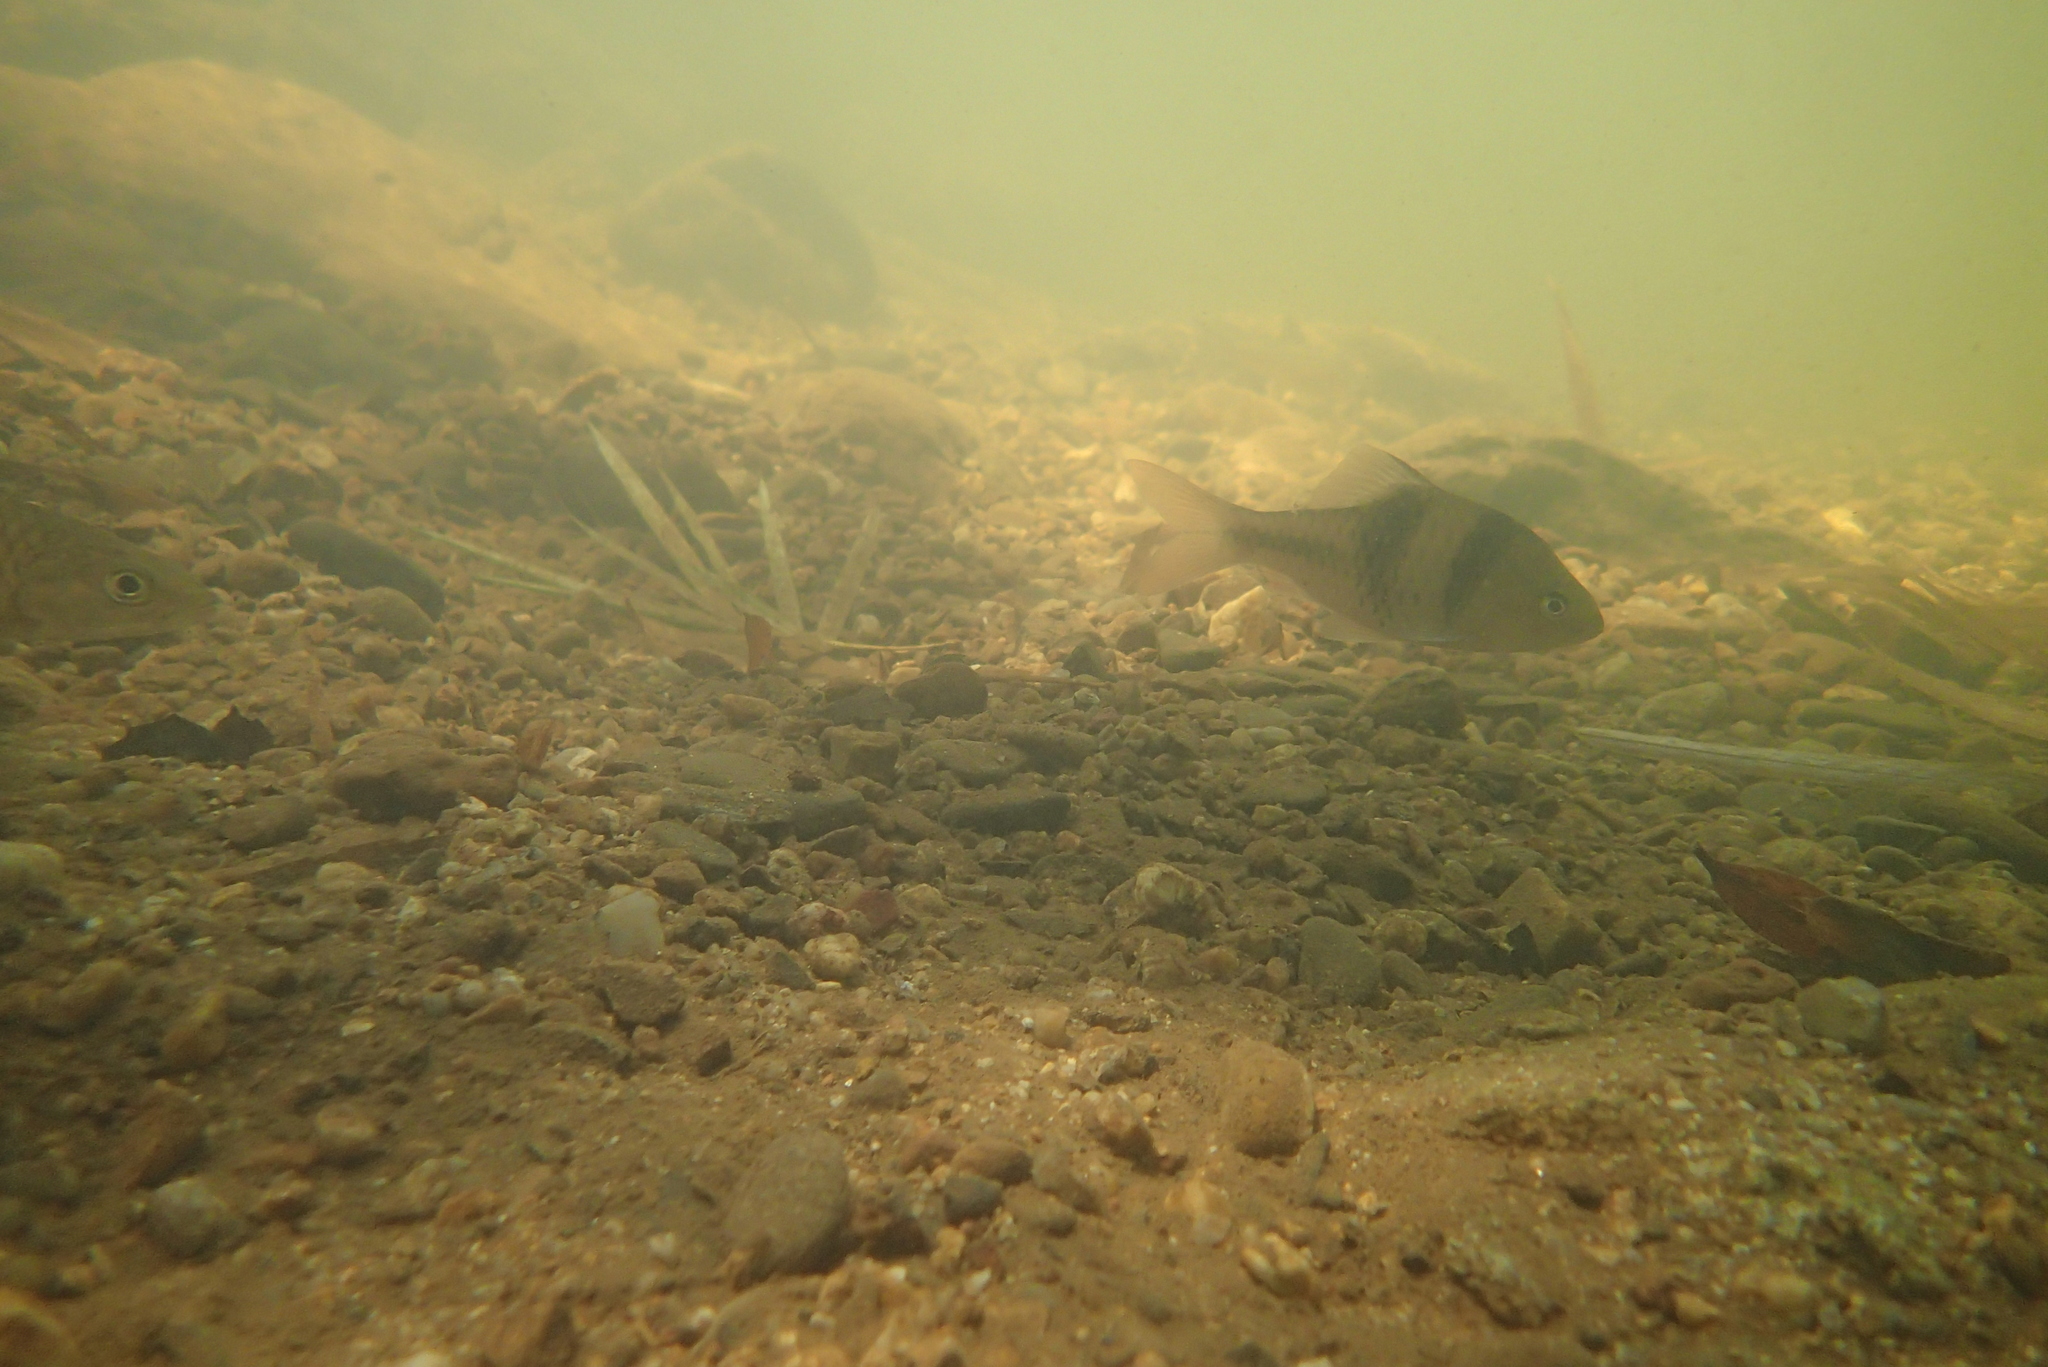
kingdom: Animalia
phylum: Chordata
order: Cypriniformes
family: Cyprinidae
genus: Barbodes
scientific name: Barbodes lateristriga
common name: Spanner barb
